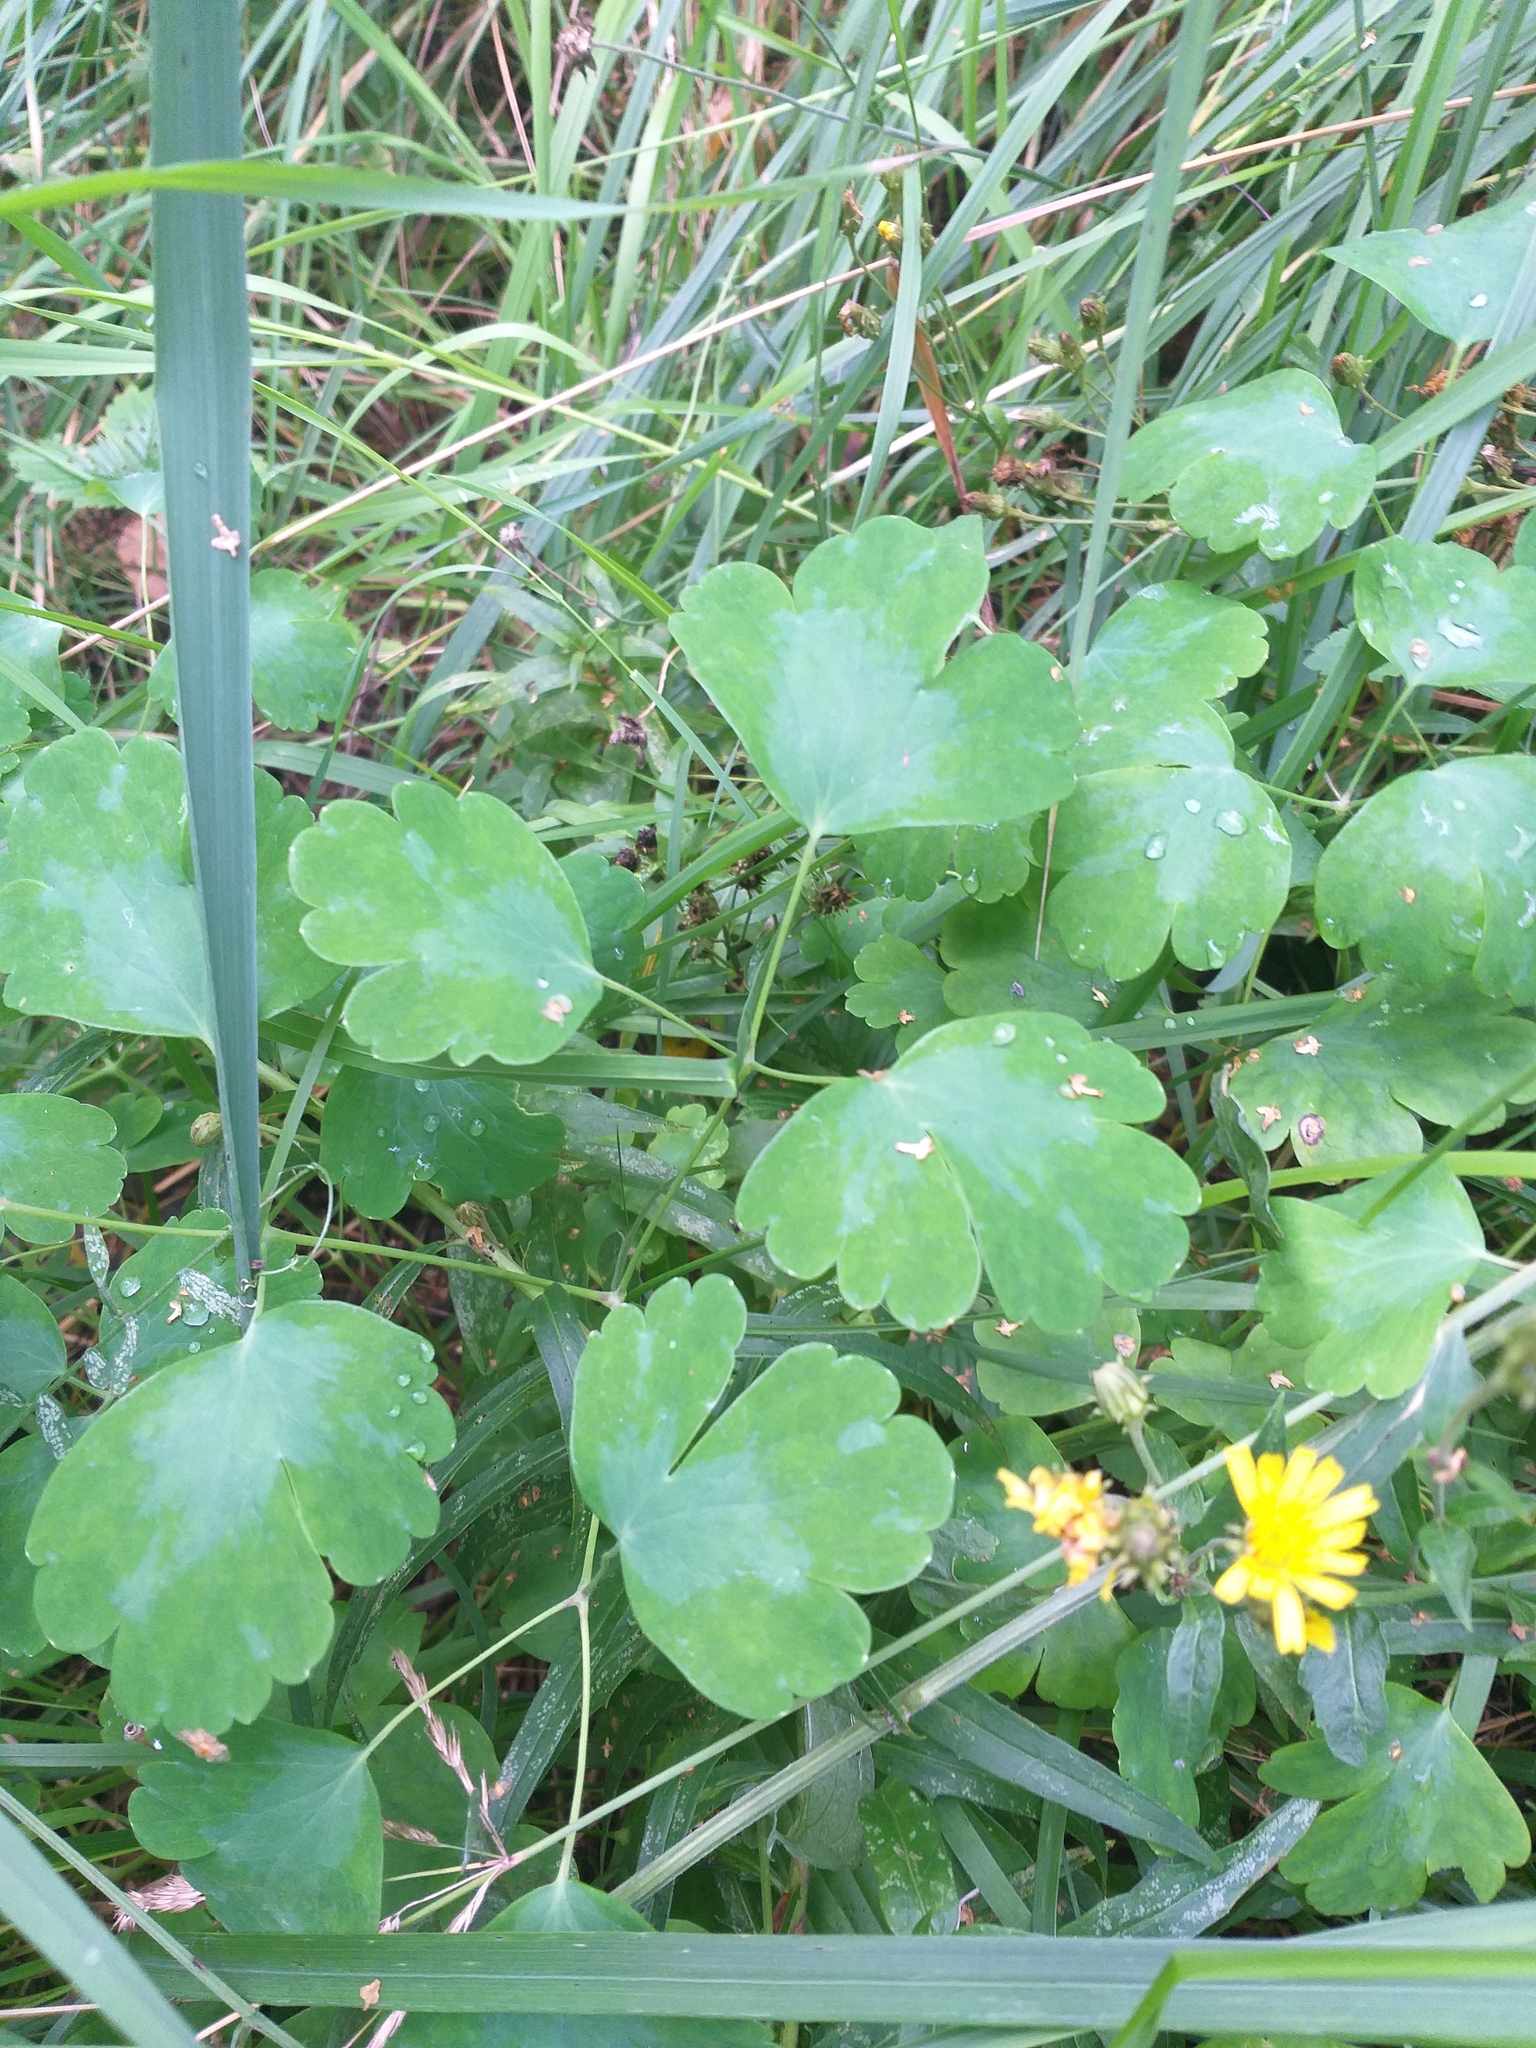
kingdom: Plantae
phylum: Tracheophyta
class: Magnoliopsida
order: Ranunculales
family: Ranunculaceae
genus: Aquilegia
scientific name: Aquilegia vulgaris
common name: Columbine
